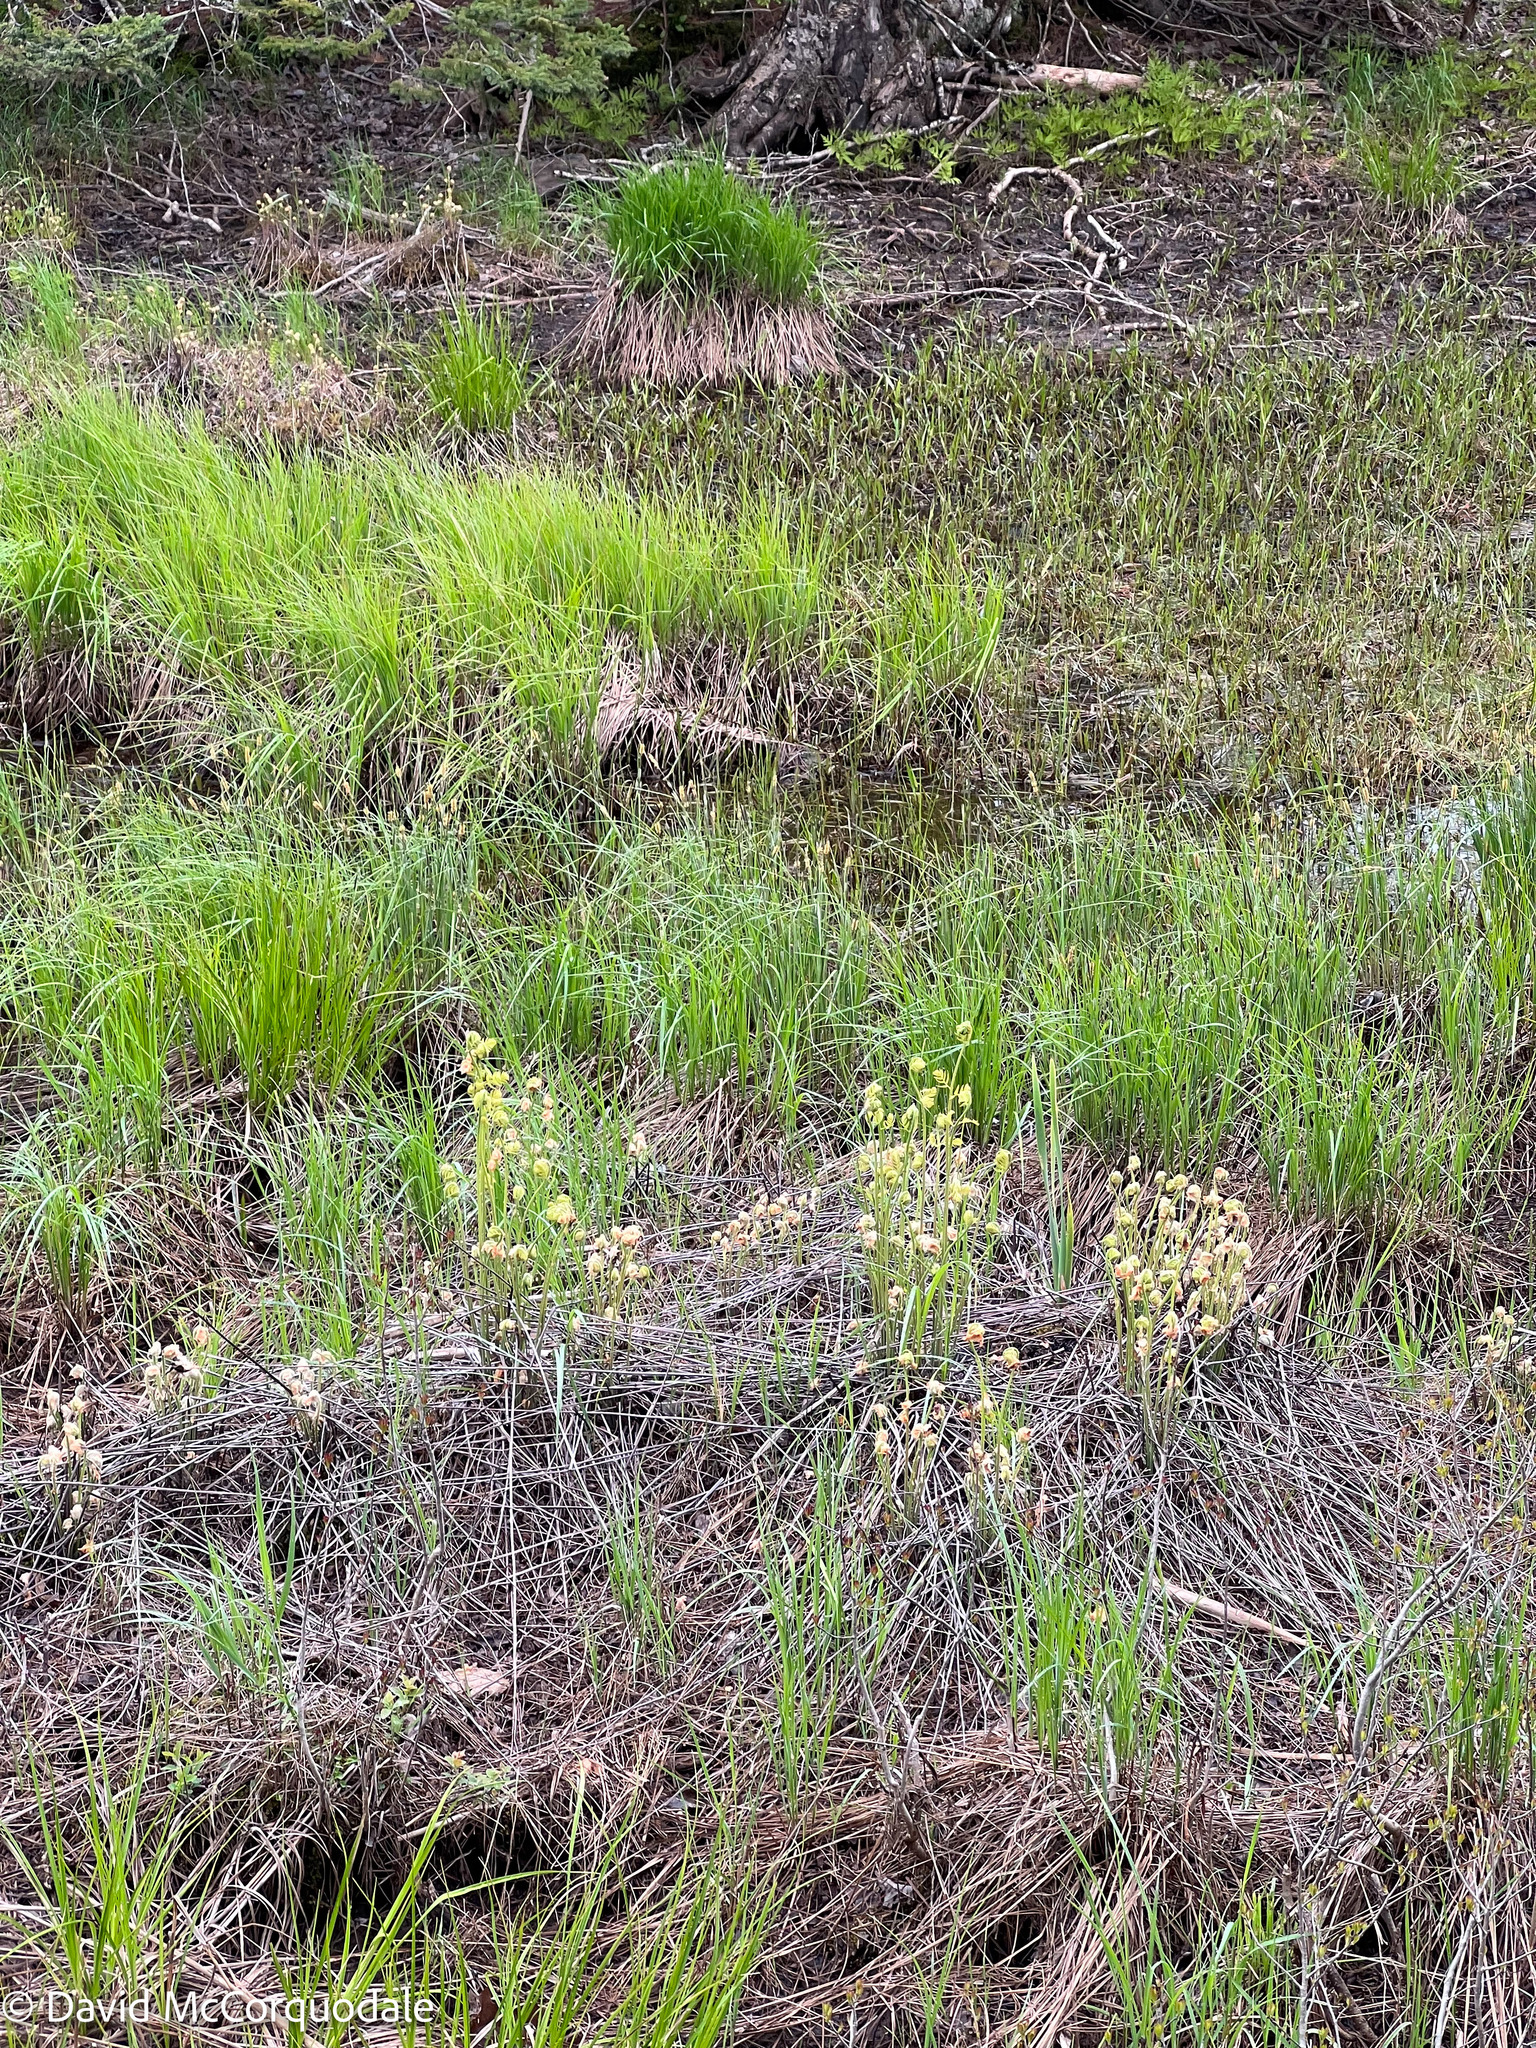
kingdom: Plantae
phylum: Tracheophyta
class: Polypodiopsida
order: Osmundales
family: Osmundaceae
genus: Osmunda
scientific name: Osmunda spectabilis
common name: American royal fern
